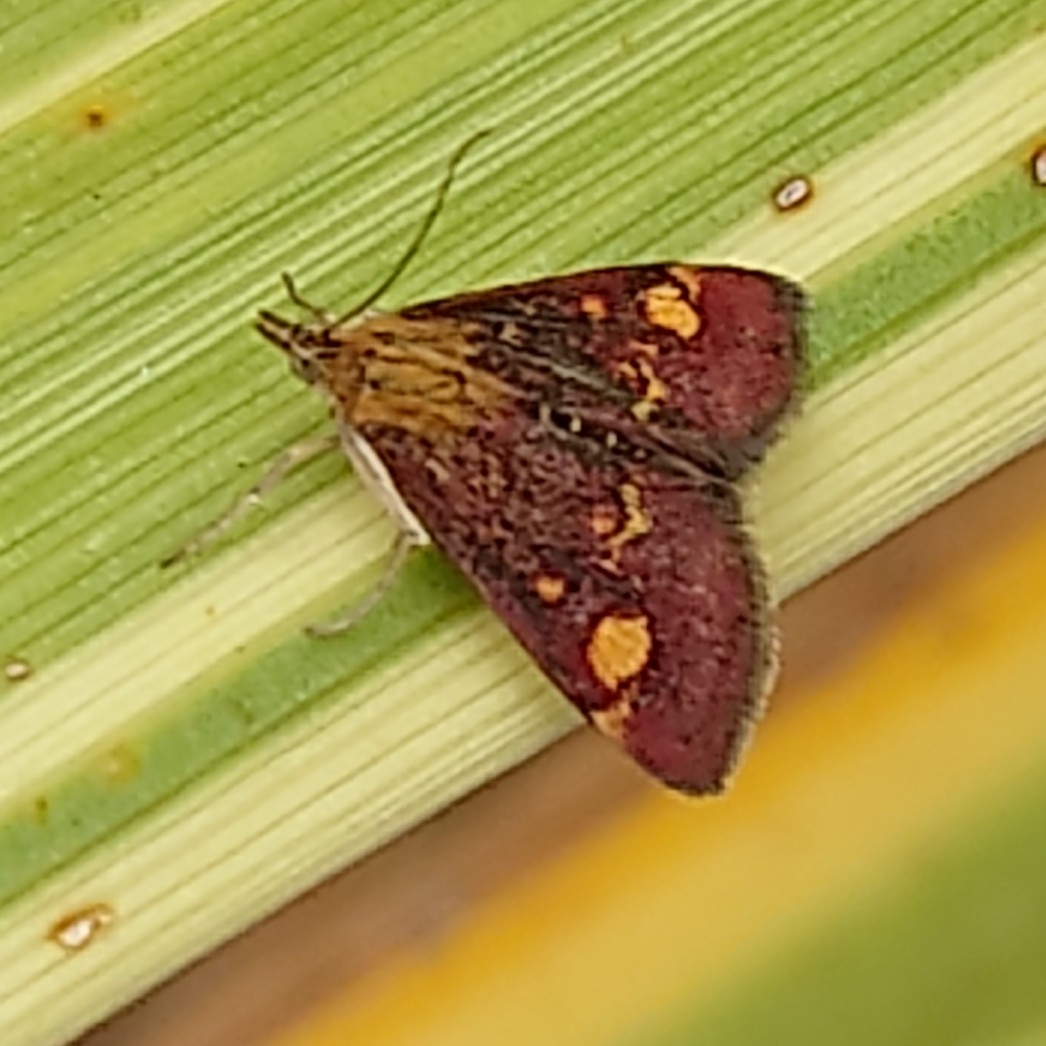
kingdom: Animalia
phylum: Arthropoda
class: Insecta
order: Lepidoptera
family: Crambidae
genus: Pyrausta
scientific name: Pyrausta aurata
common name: Small purple & gold
